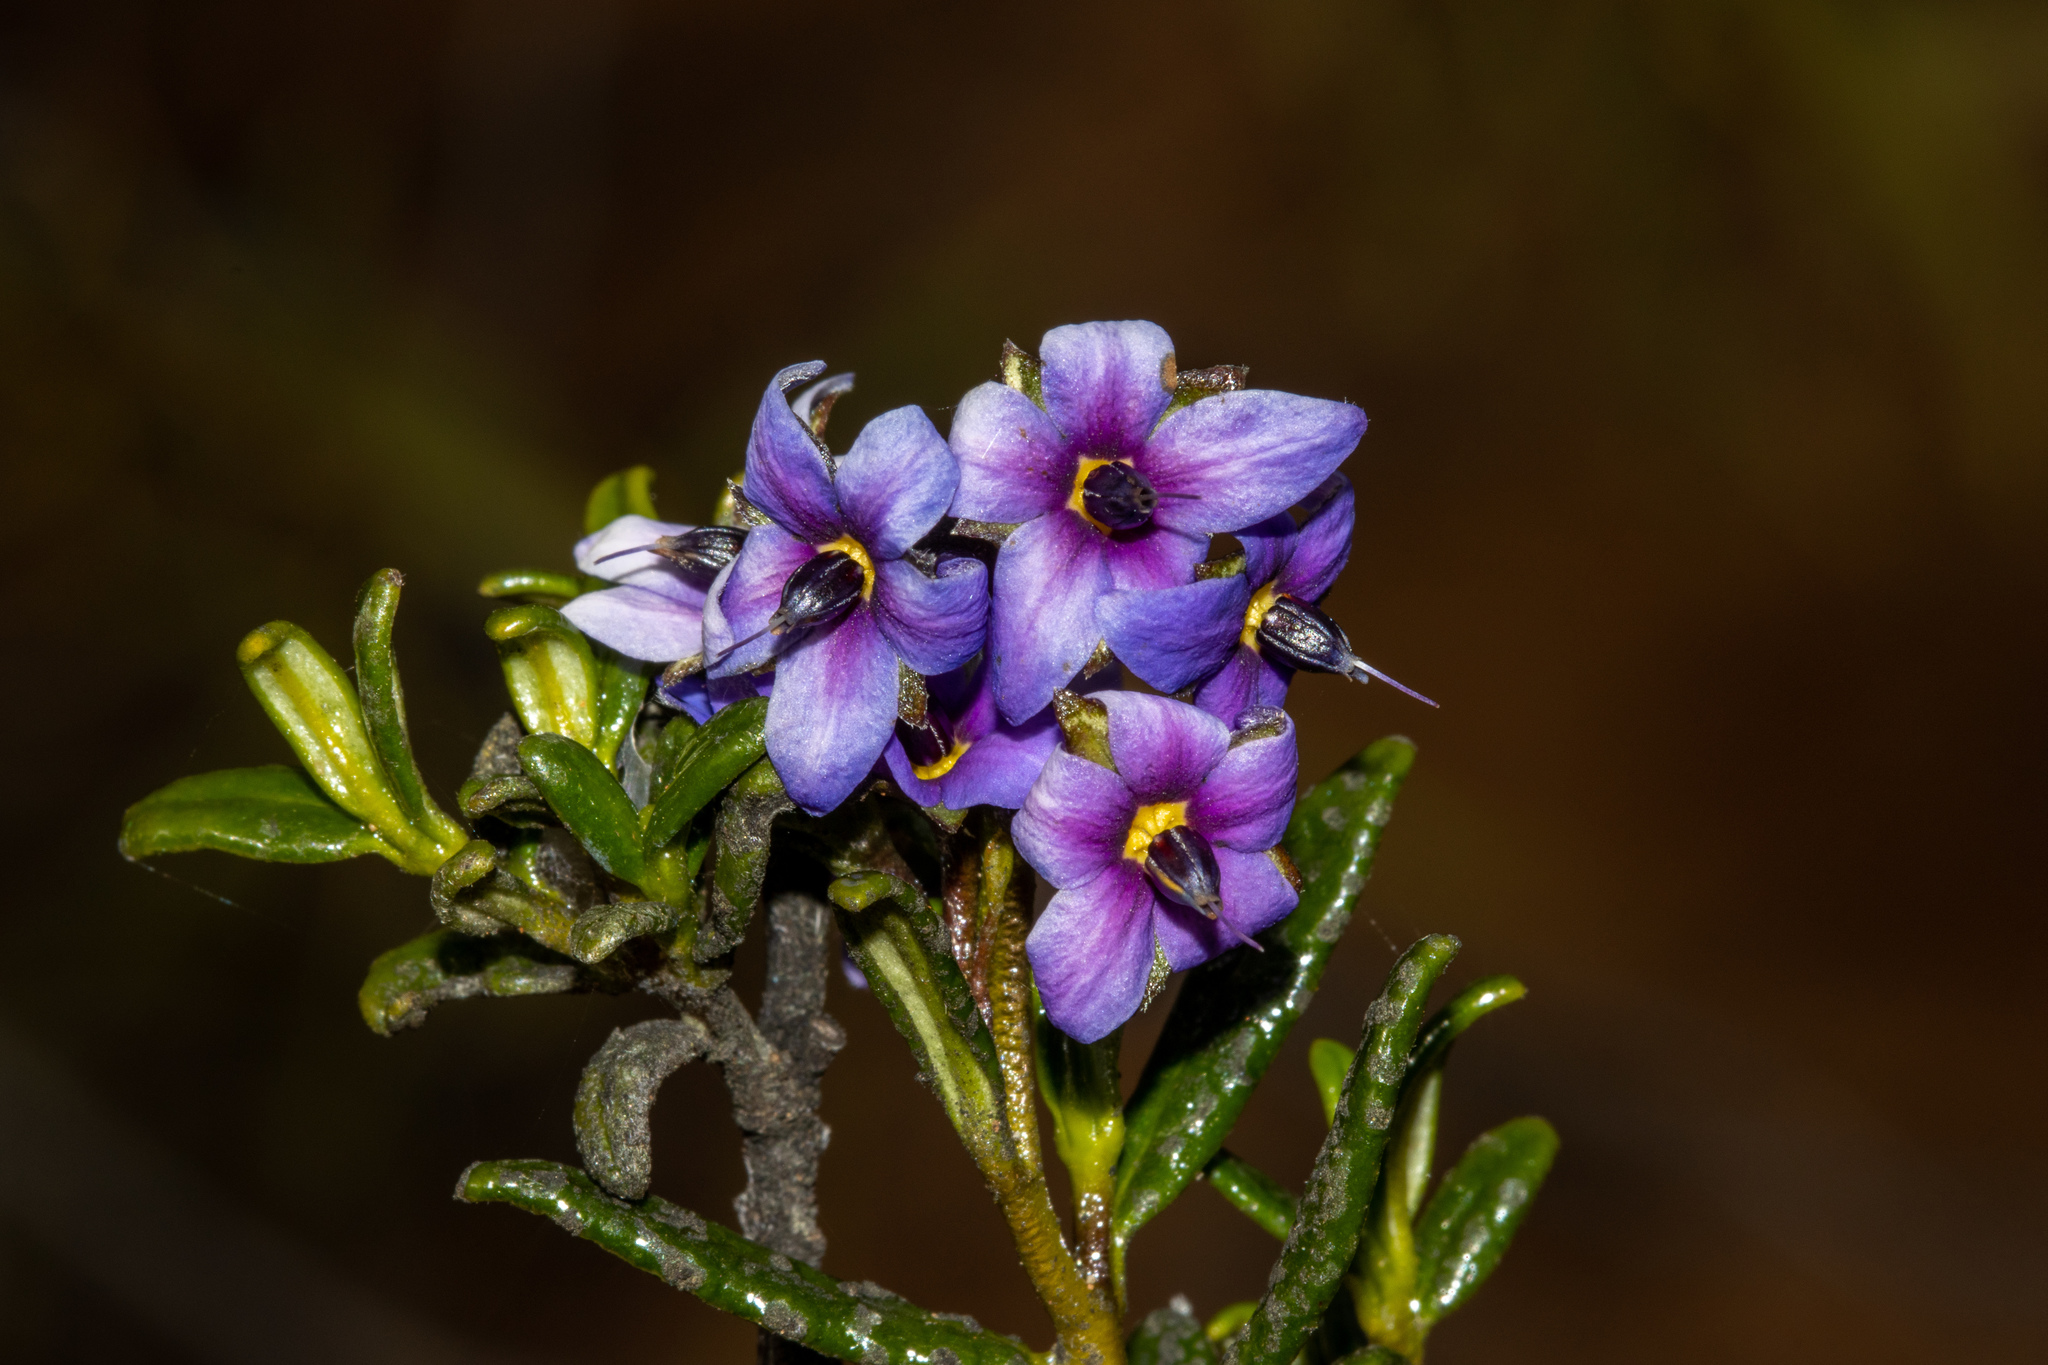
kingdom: Plantae
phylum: Tracheophyta
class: Magnoliopsida
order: Boraginales
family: Ehretiaceae
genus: Halgania
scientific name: Halgania andromedifolia
